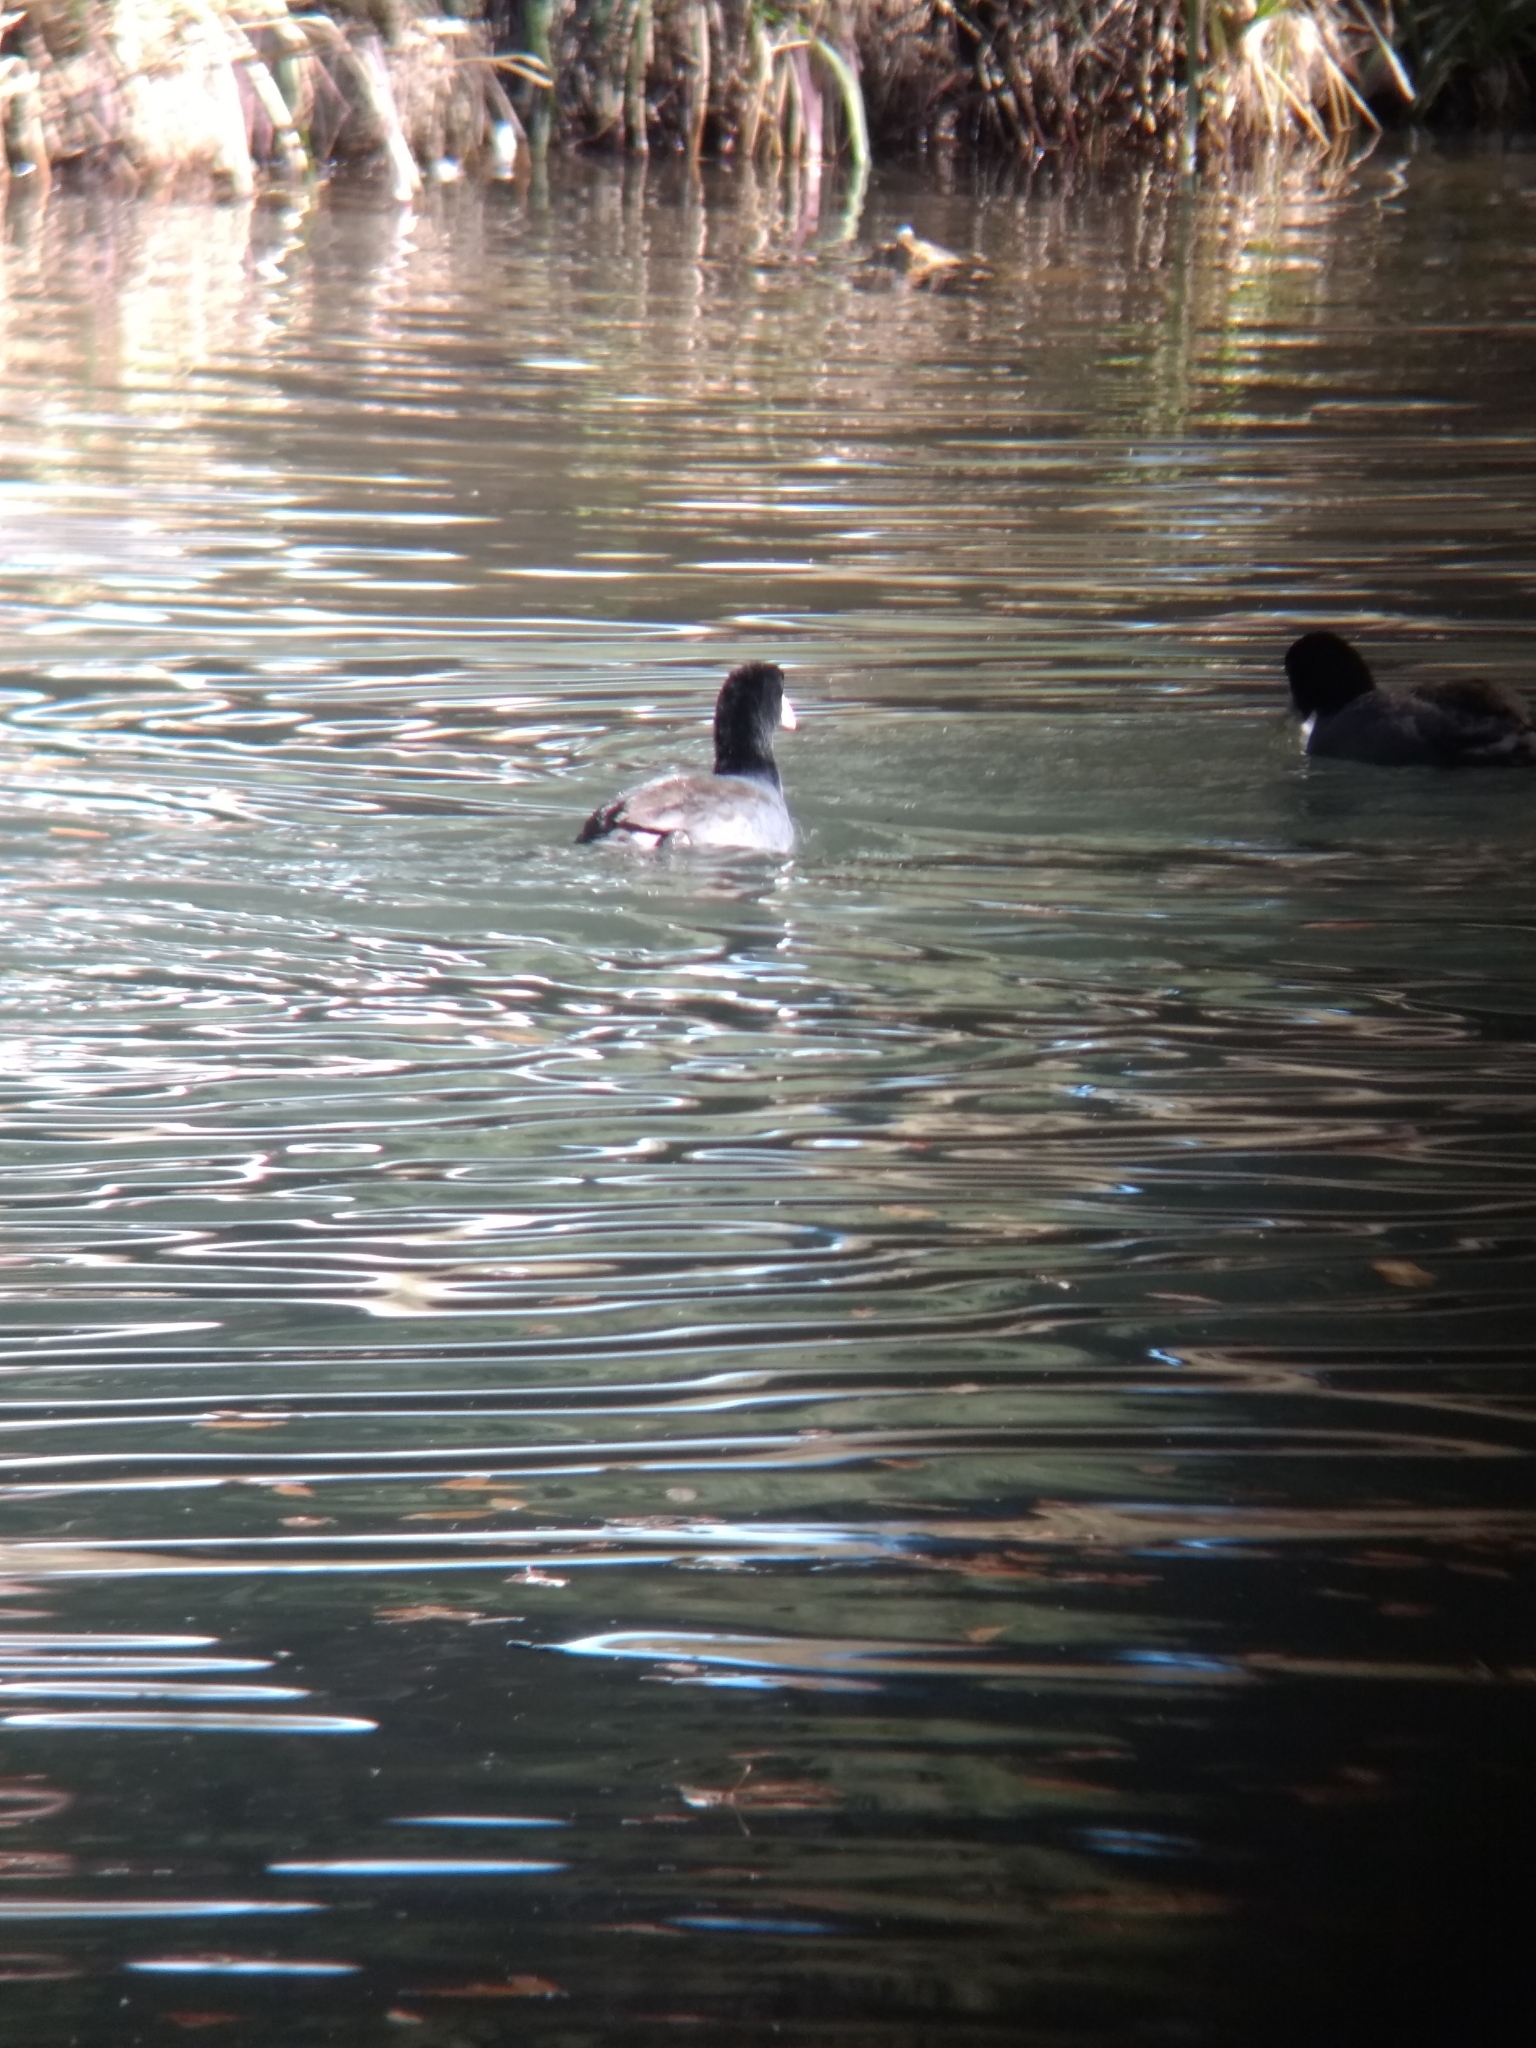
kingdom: Animalia
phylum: Chordata
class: Aves
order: Gruiformes
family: Rallidae
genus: Fulica
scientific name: Fulica americana
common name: American coot
